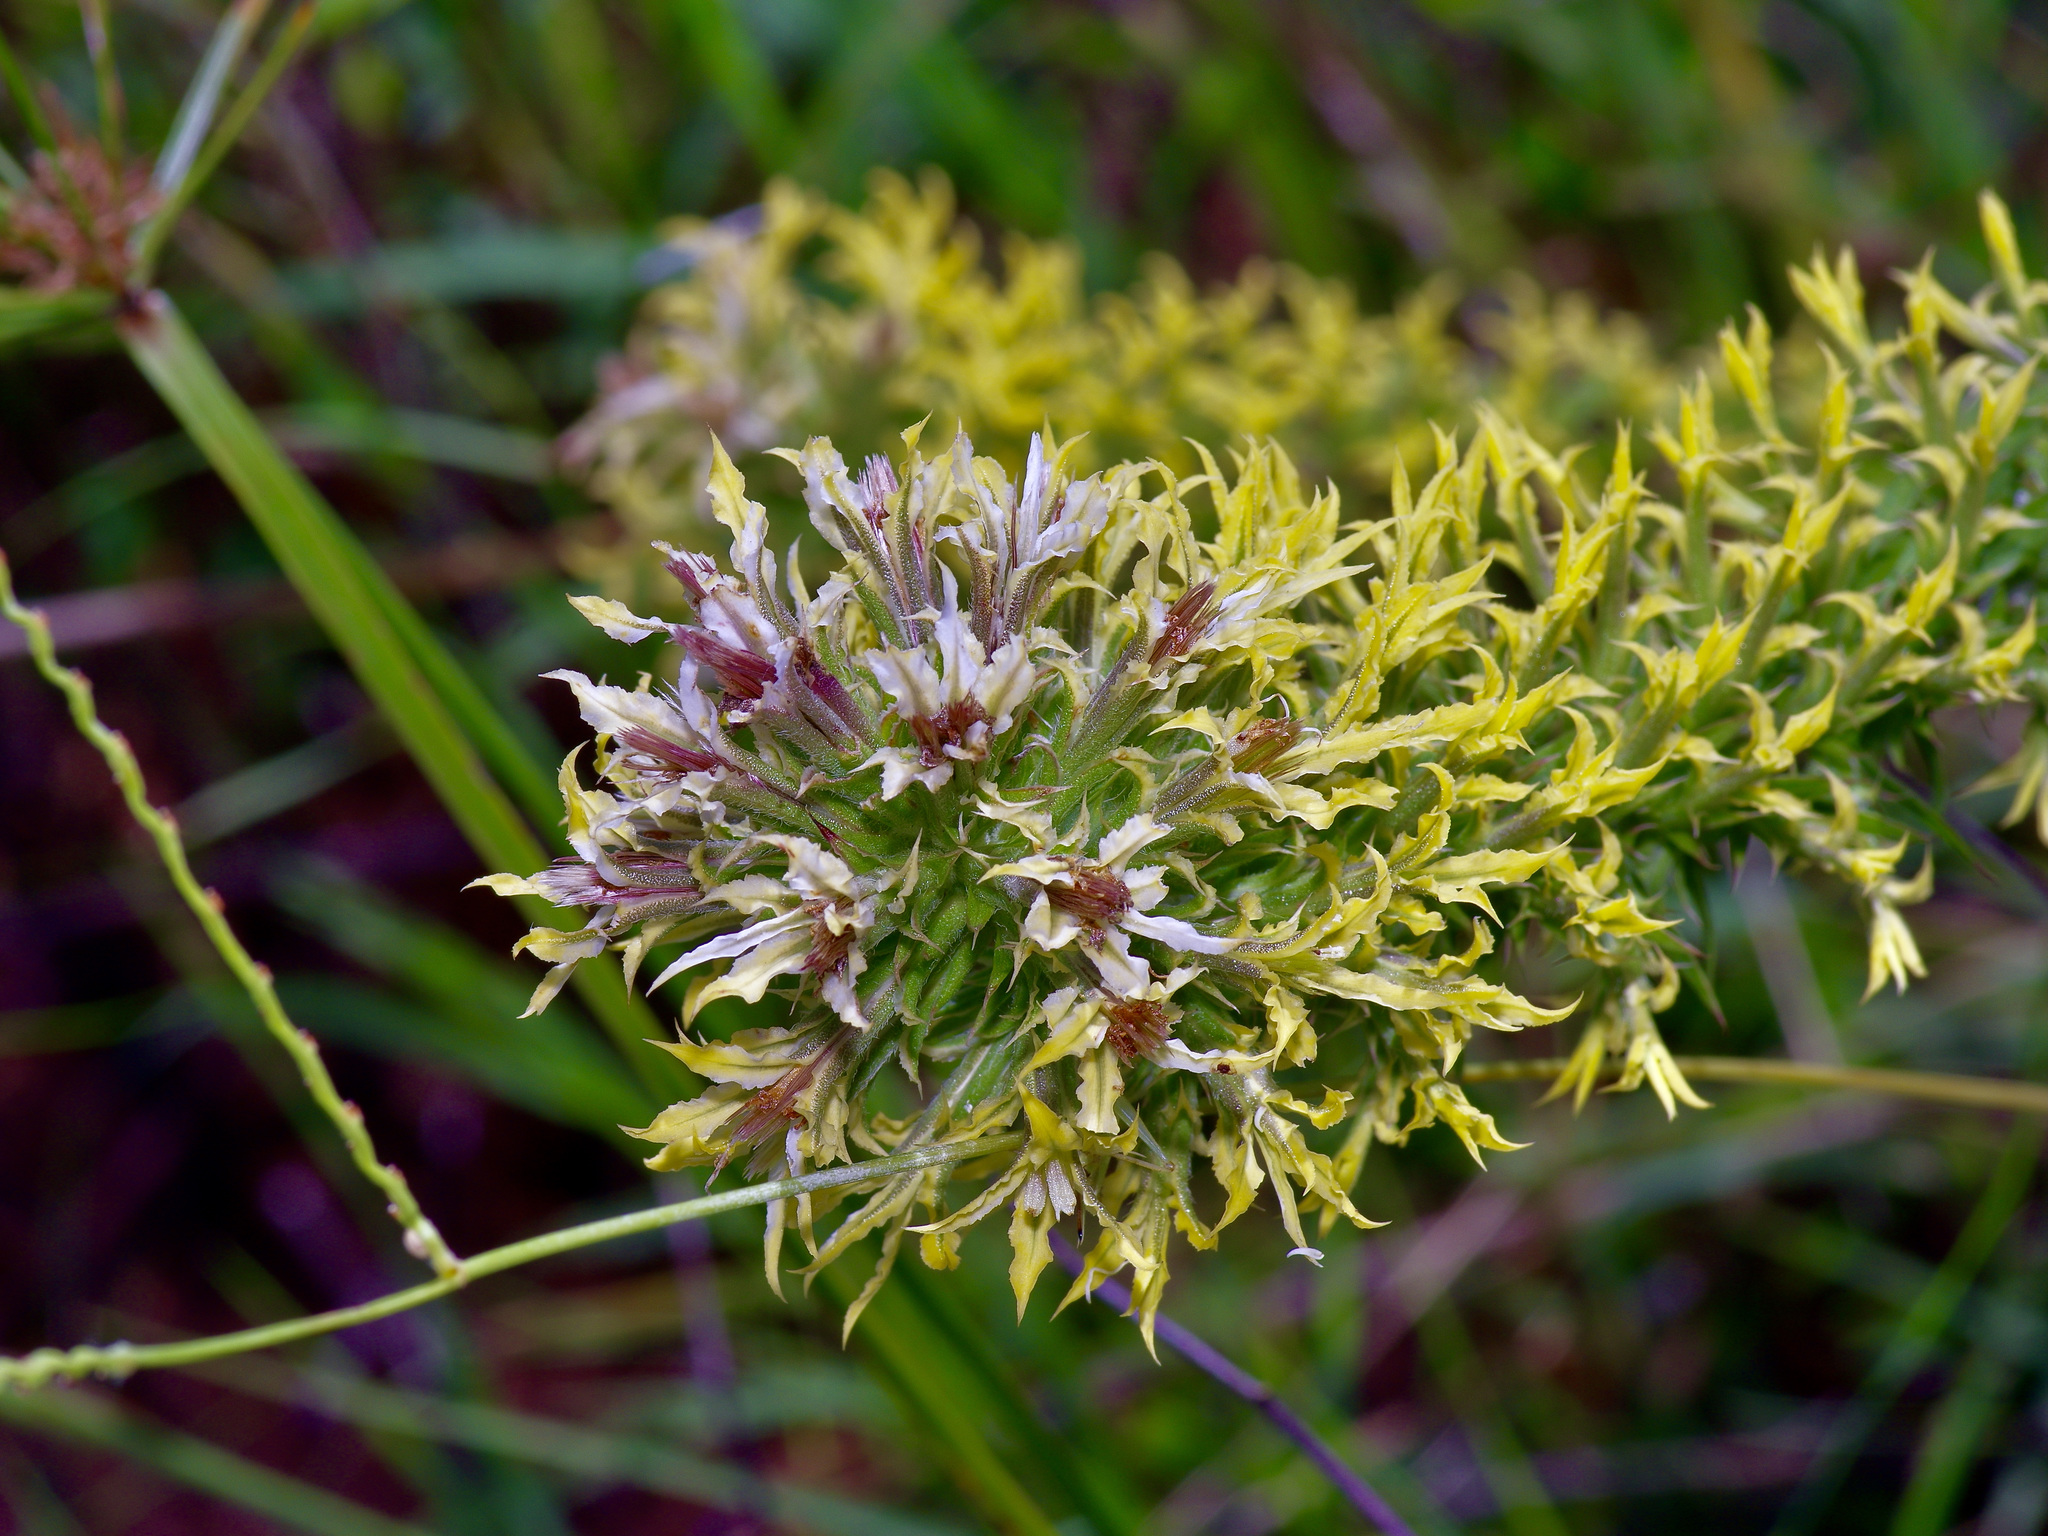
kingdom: Plantae
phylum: Tracheophyta
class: Magnoliopsida
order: Asterales
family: Asteraceae
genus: Liatris
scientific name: Liatris bridgesii
